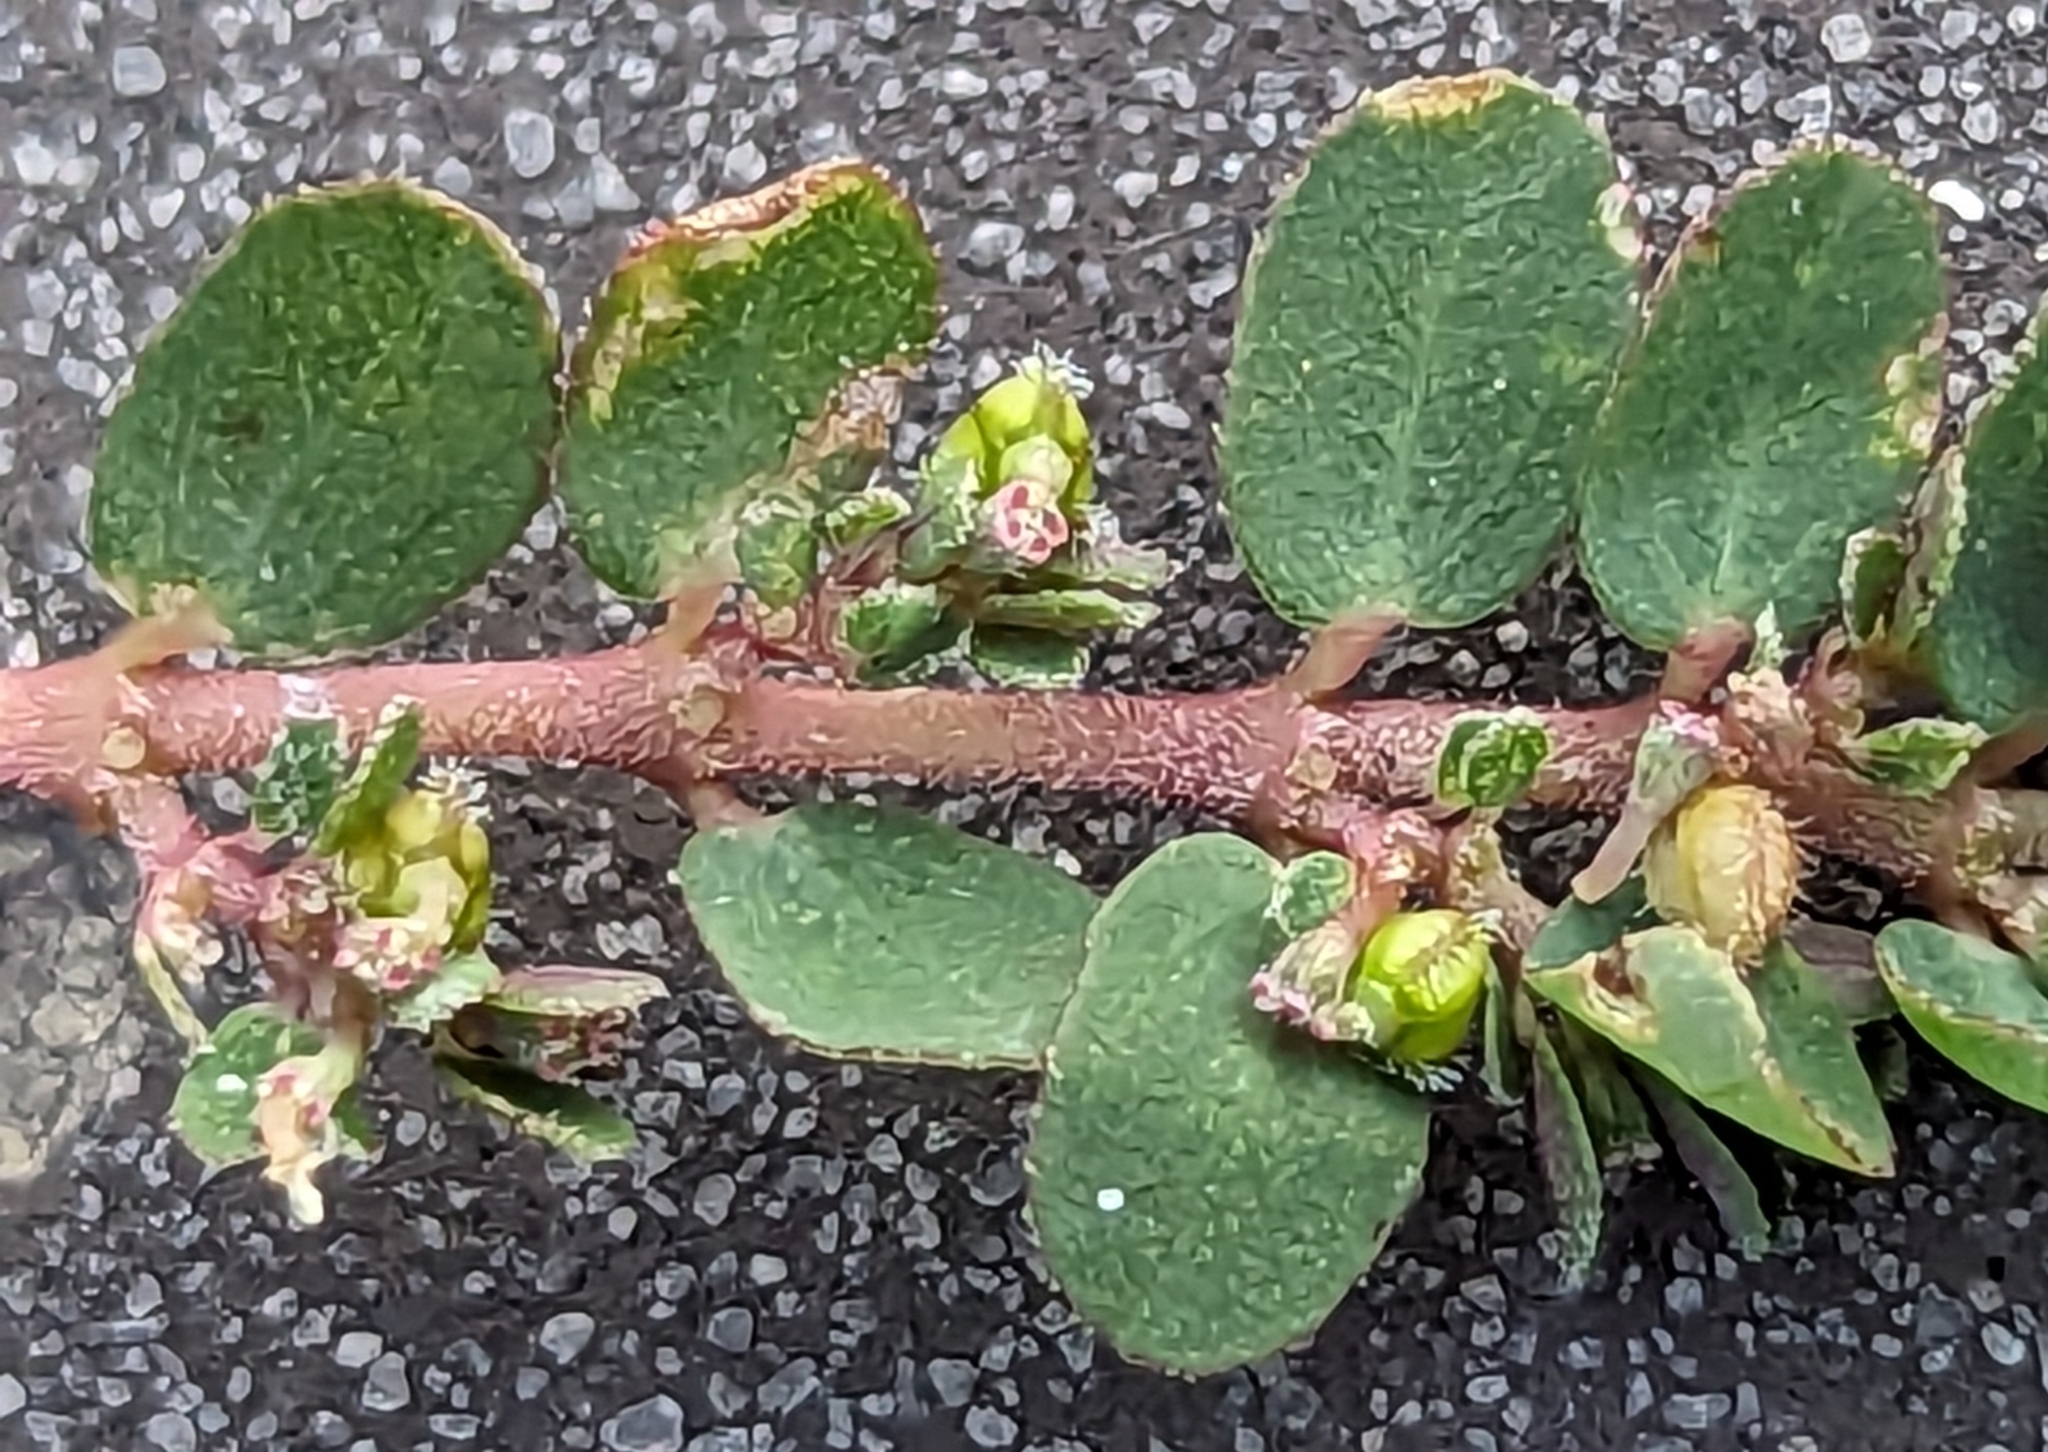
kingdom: Plantae
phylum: Tracheophyta
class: Magnoliopsida
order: Malpighiales
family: Euphorbiaceae
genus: Euphorbia
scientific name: Euphorbia prostrata
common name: Prostrate sandmat
